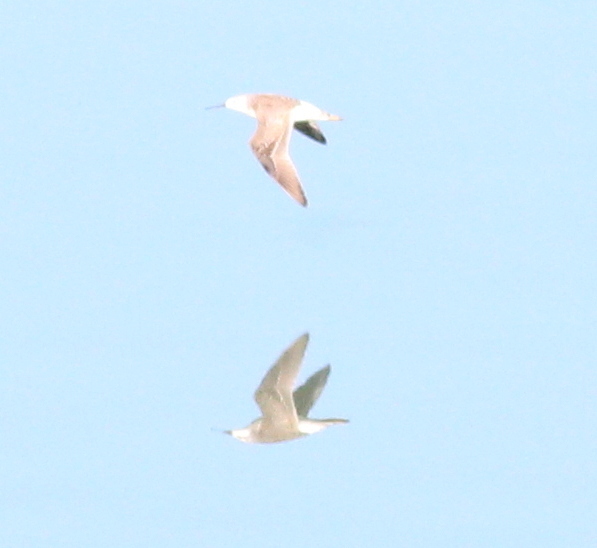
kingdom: Animalia
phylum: Chordata
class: Aves
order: Charadriiformes
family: Scolopacidae
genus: Phalaropus
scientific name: Phalaropus tricolor
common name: Wilson's phalarope
